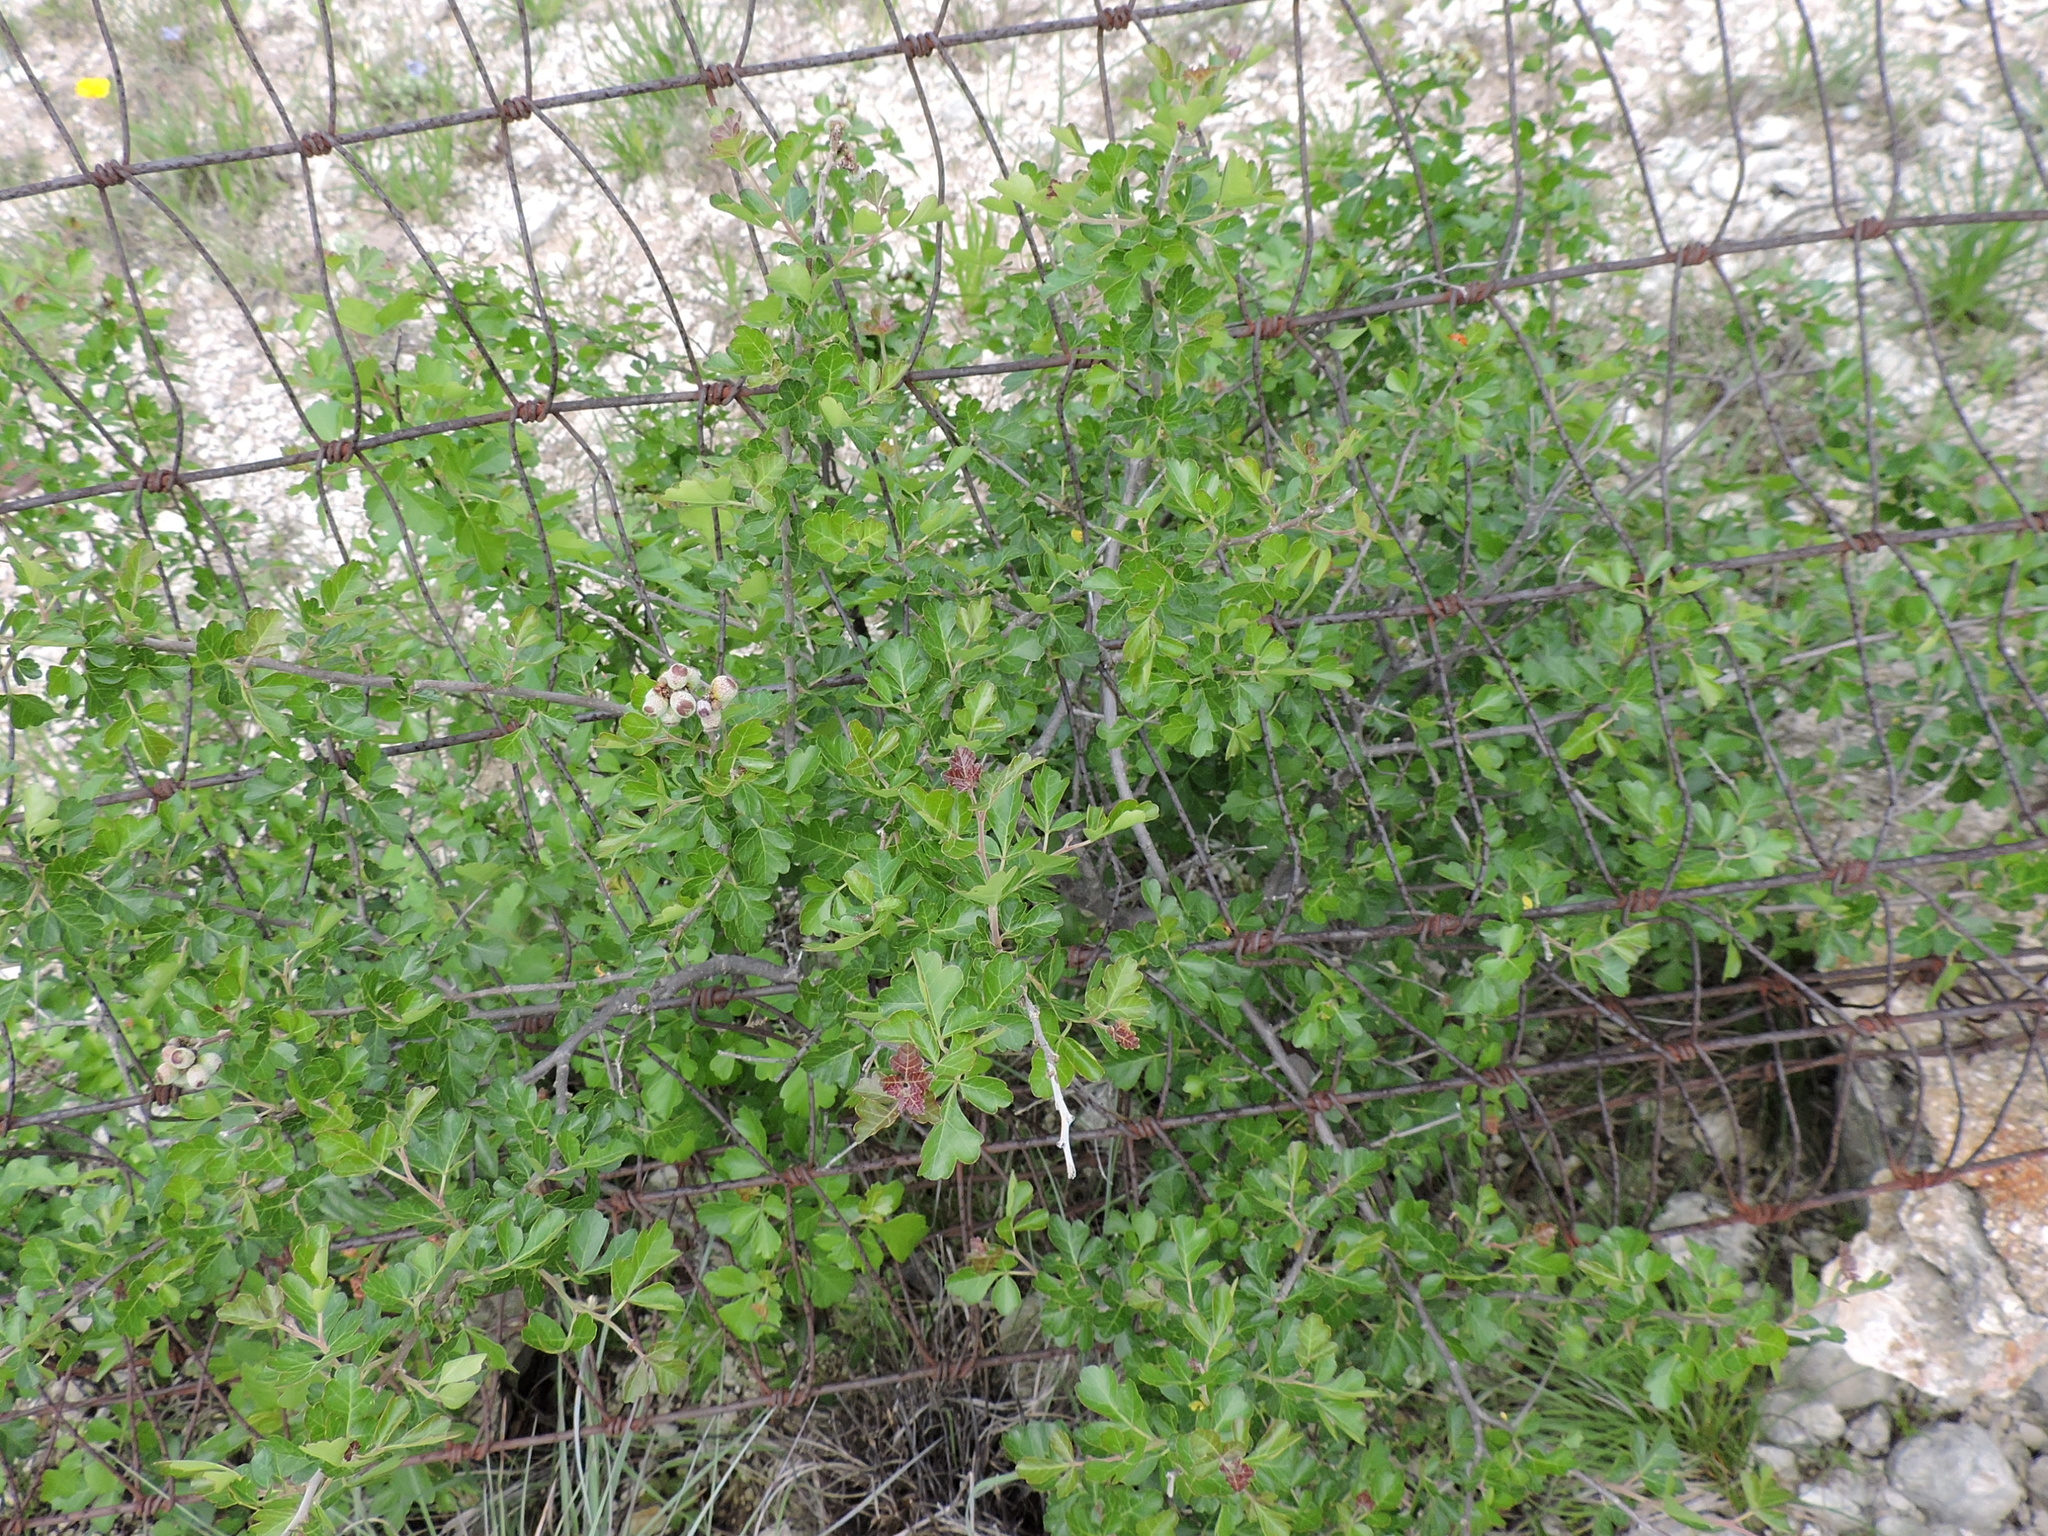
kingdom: Plantae
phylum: Tracheophyta
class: Magnoliopsida
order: Sapindales
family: Anacardiaceae
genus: Rhus
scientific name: Rhus aromatica
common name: Aromatic sumac
